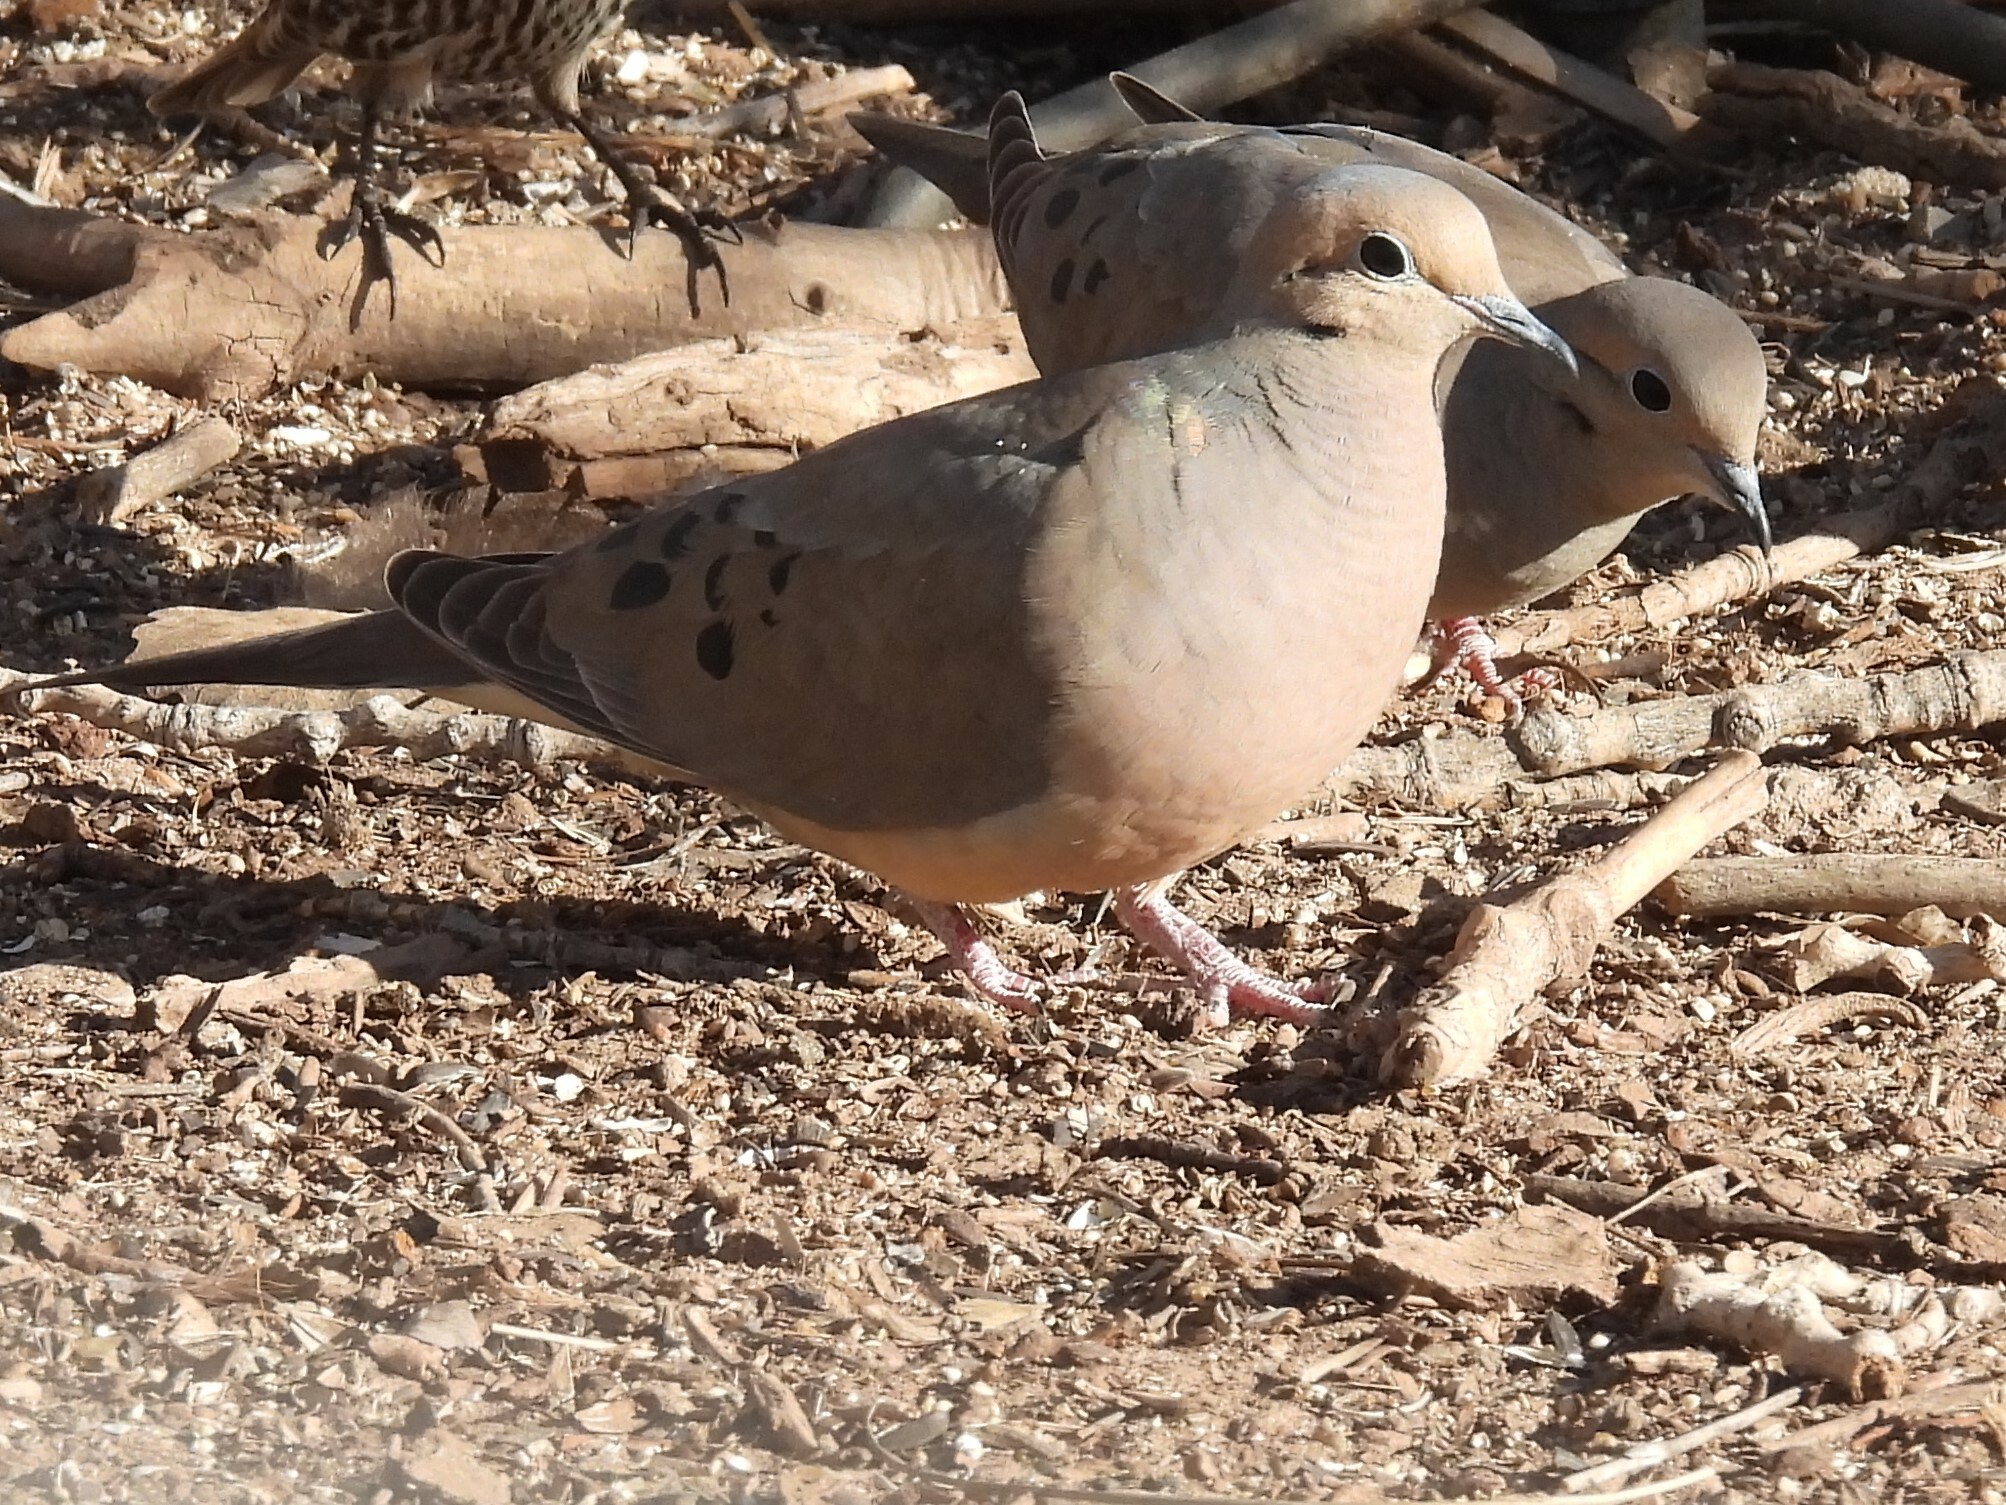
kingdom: Animalia
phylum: Chordata
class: Aves
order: Columbiformes
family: Columbidae
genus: Zenaida
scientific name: Zenaida macroura
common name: Mourning dove
